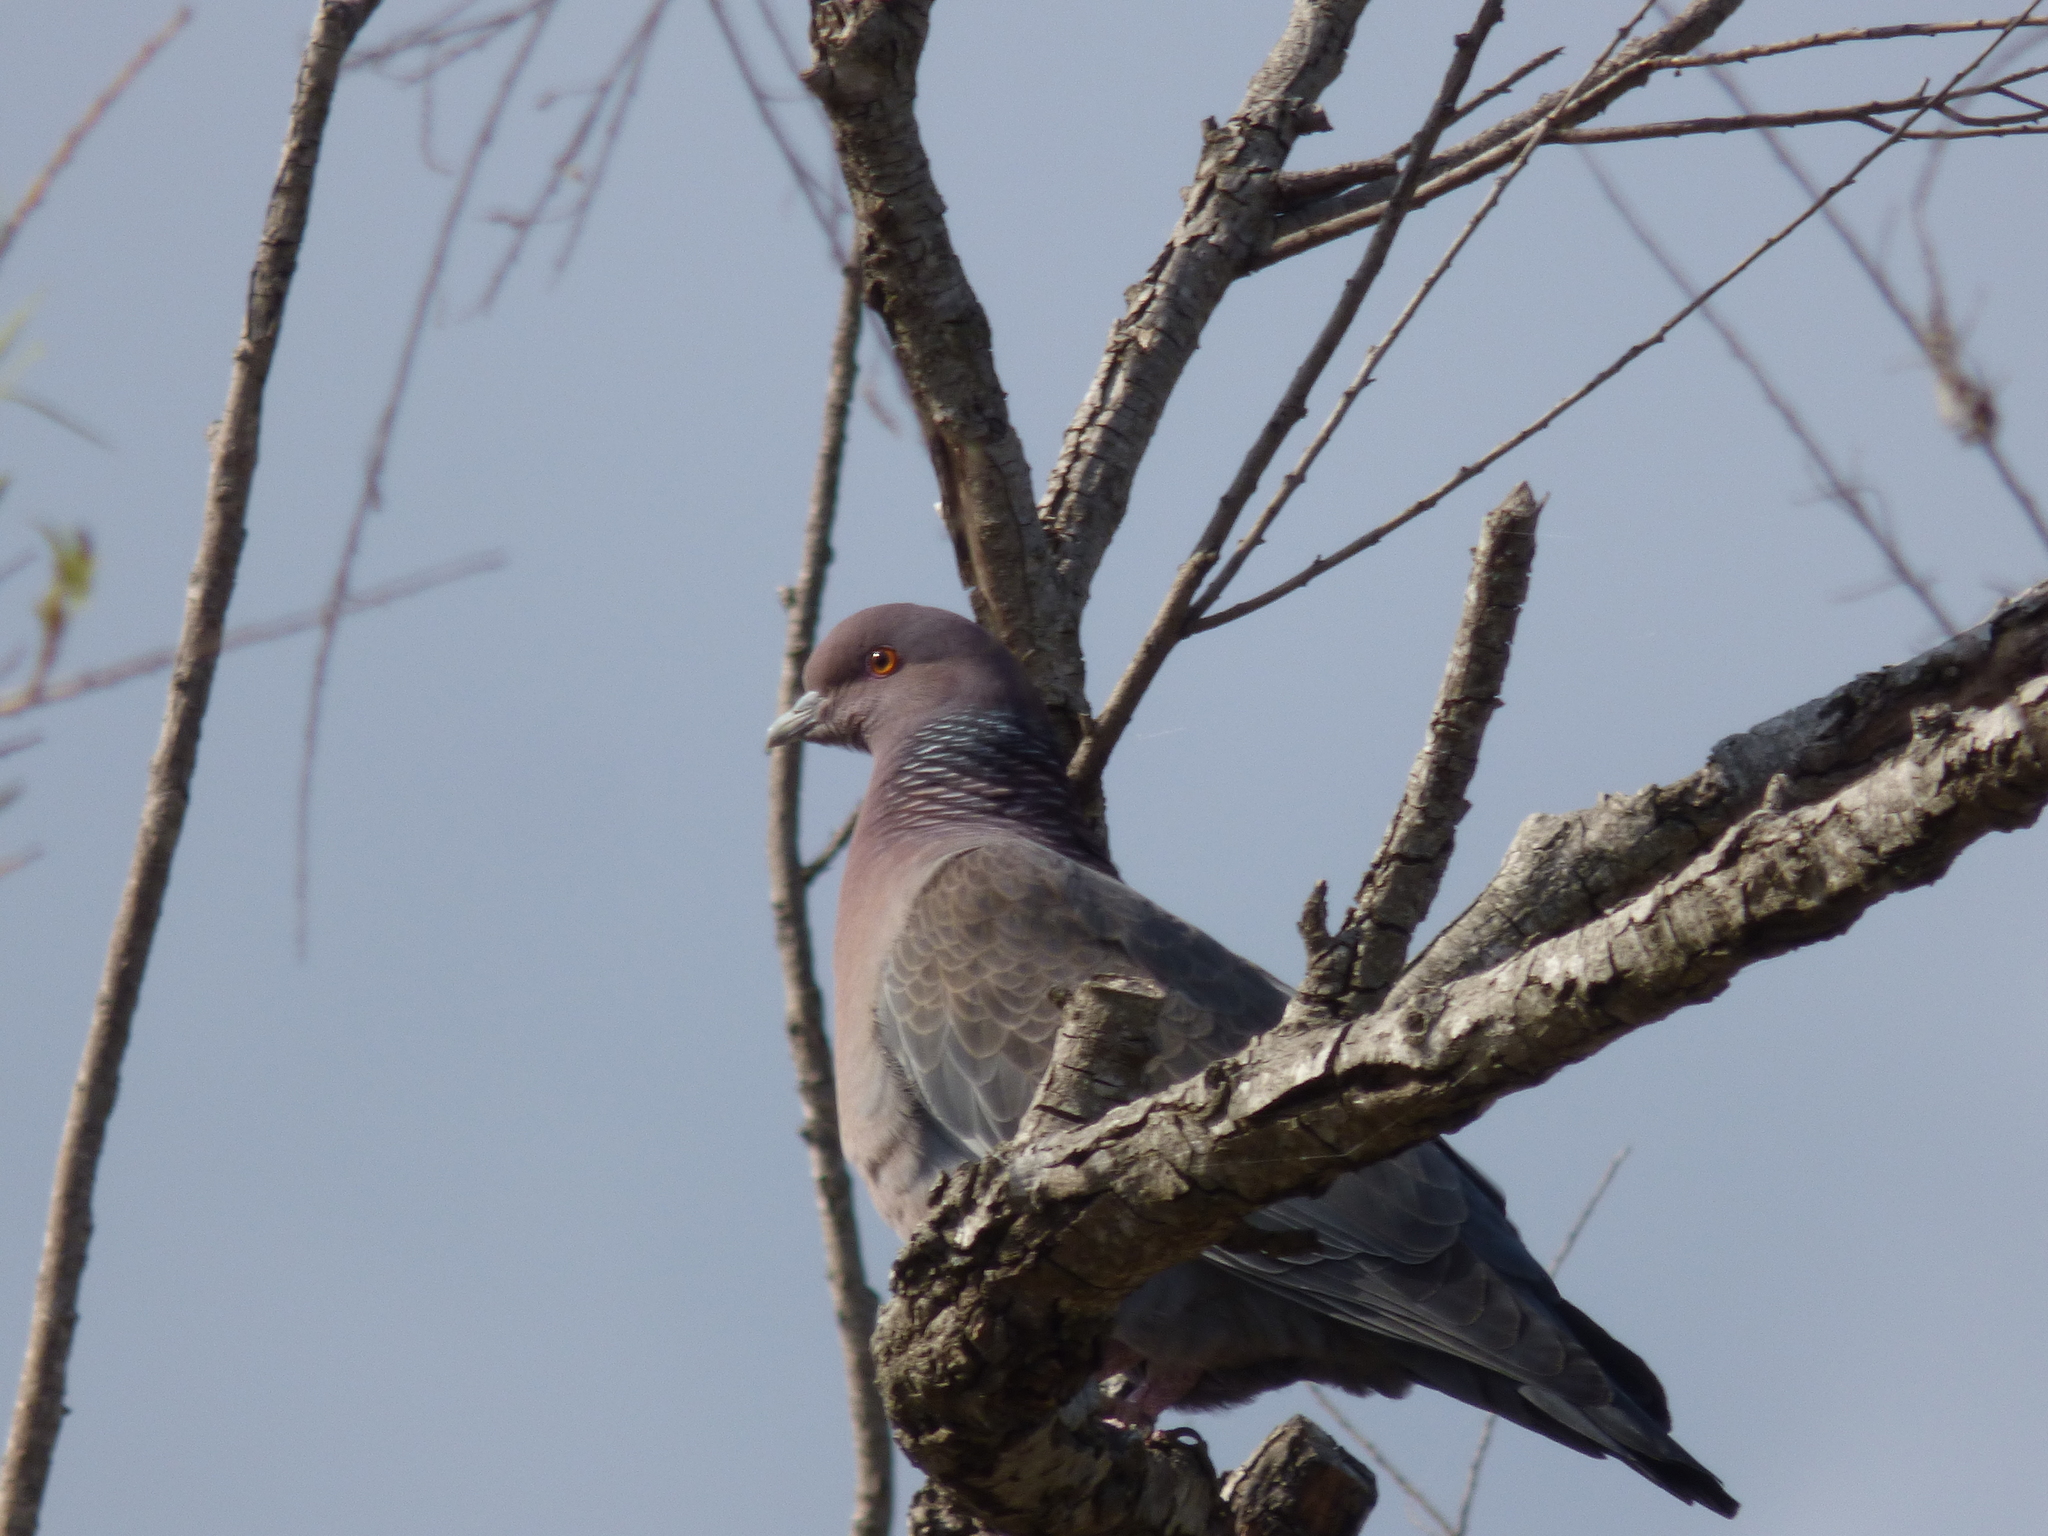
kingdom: Animalia
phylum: Chordata
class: Aves
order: Columbiformes
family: Columbidae
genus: Patagioenas
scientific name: Patagioenas picazuro
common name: Picazuro pigeon
